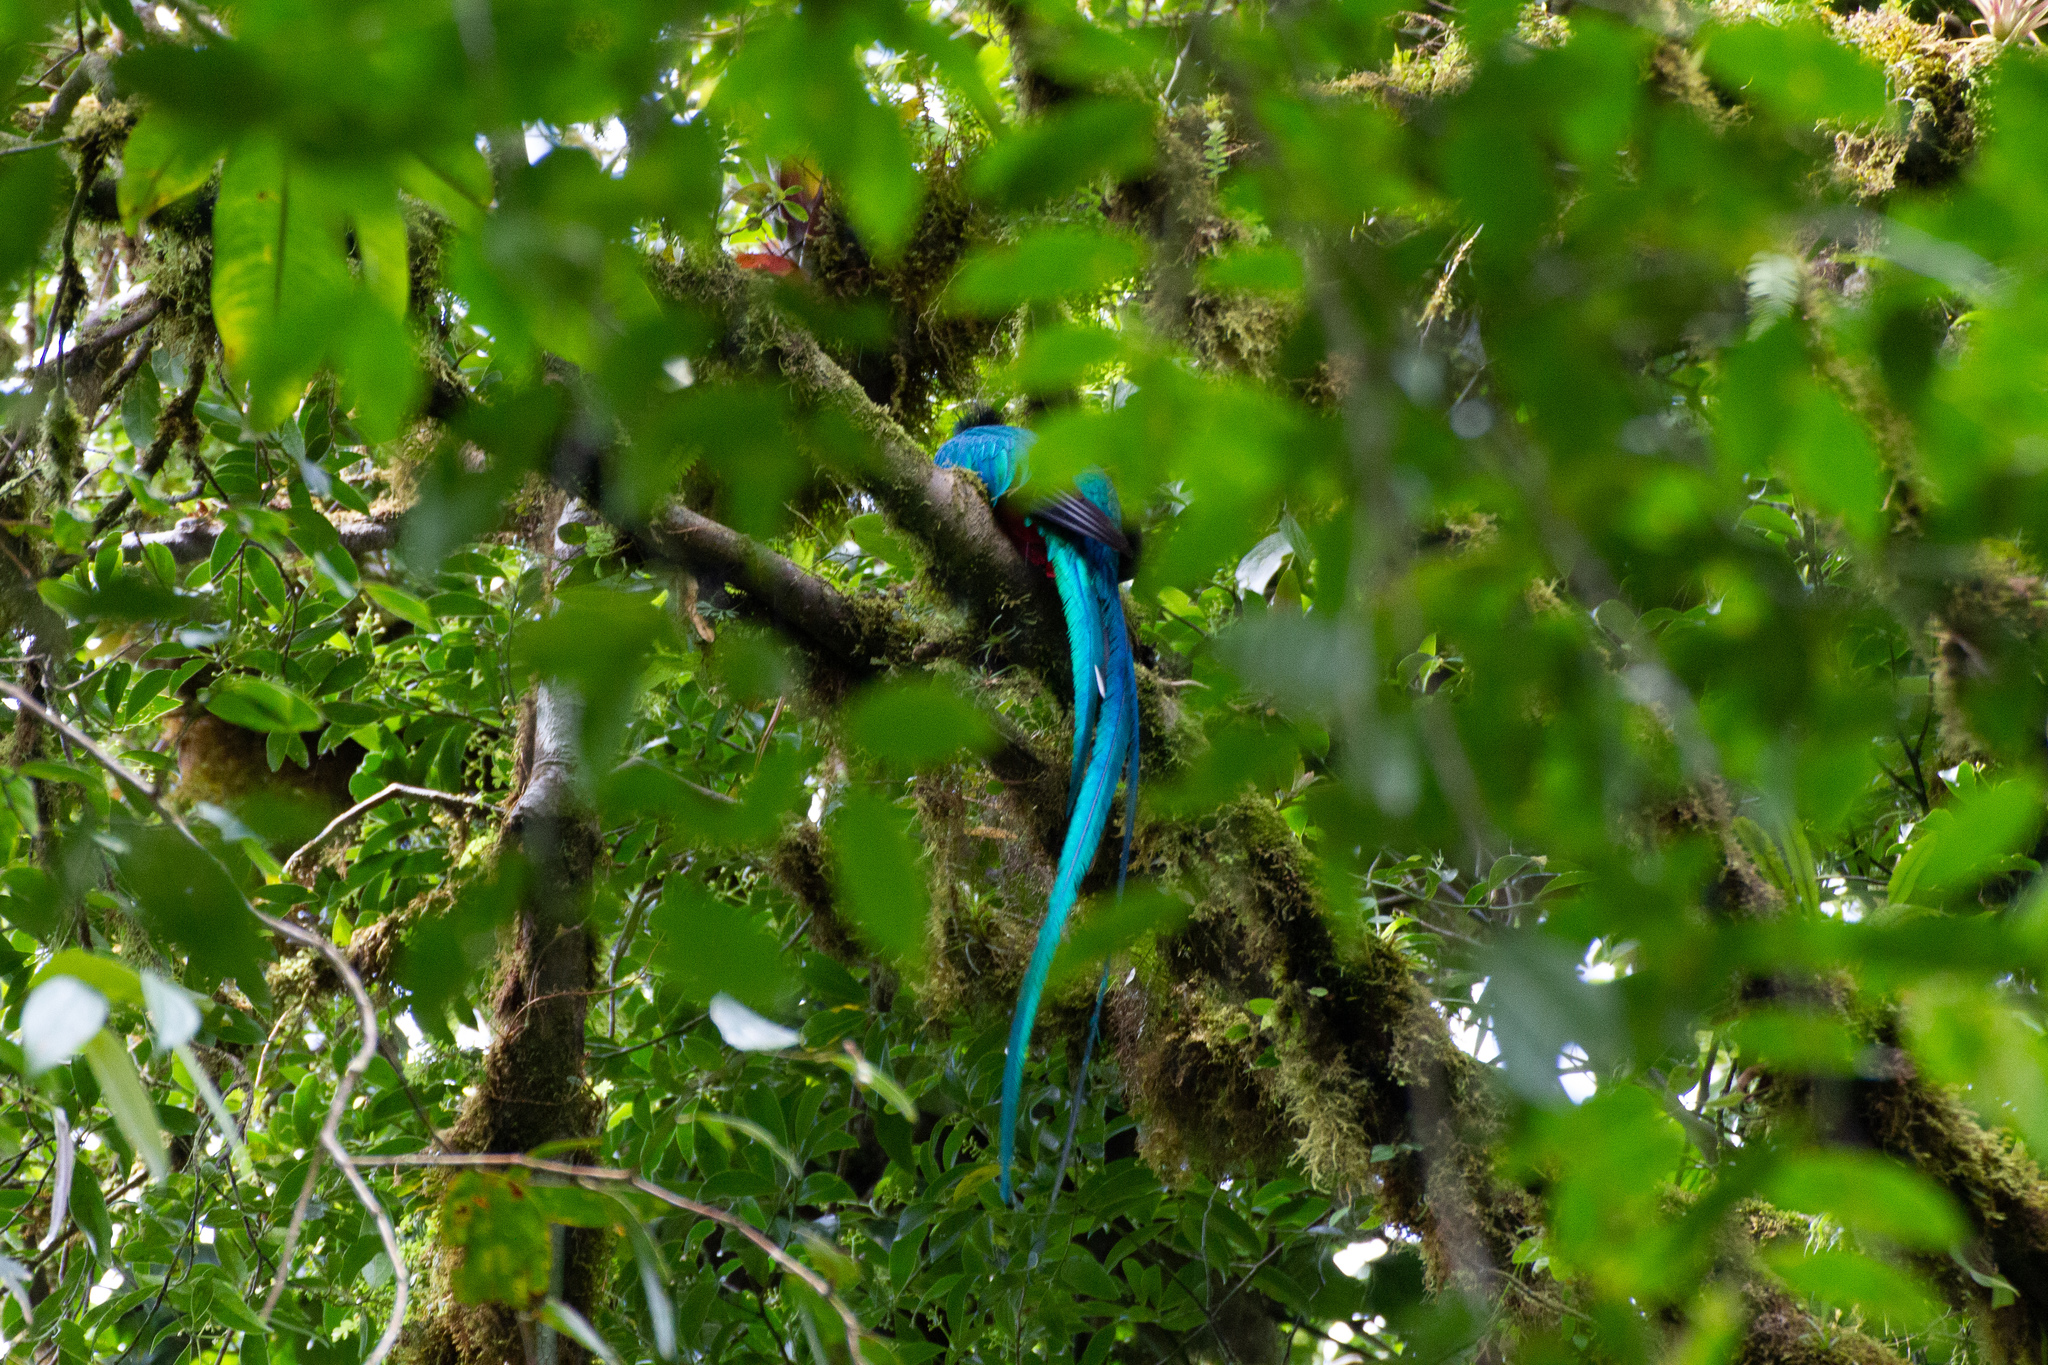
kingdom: Animalia
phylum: Chordata
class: Aves
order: Trogoniformes
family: Trogonidae
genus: Pharomachrus
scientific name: Pharomachrus mocinno
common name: Resplendent quetzal
